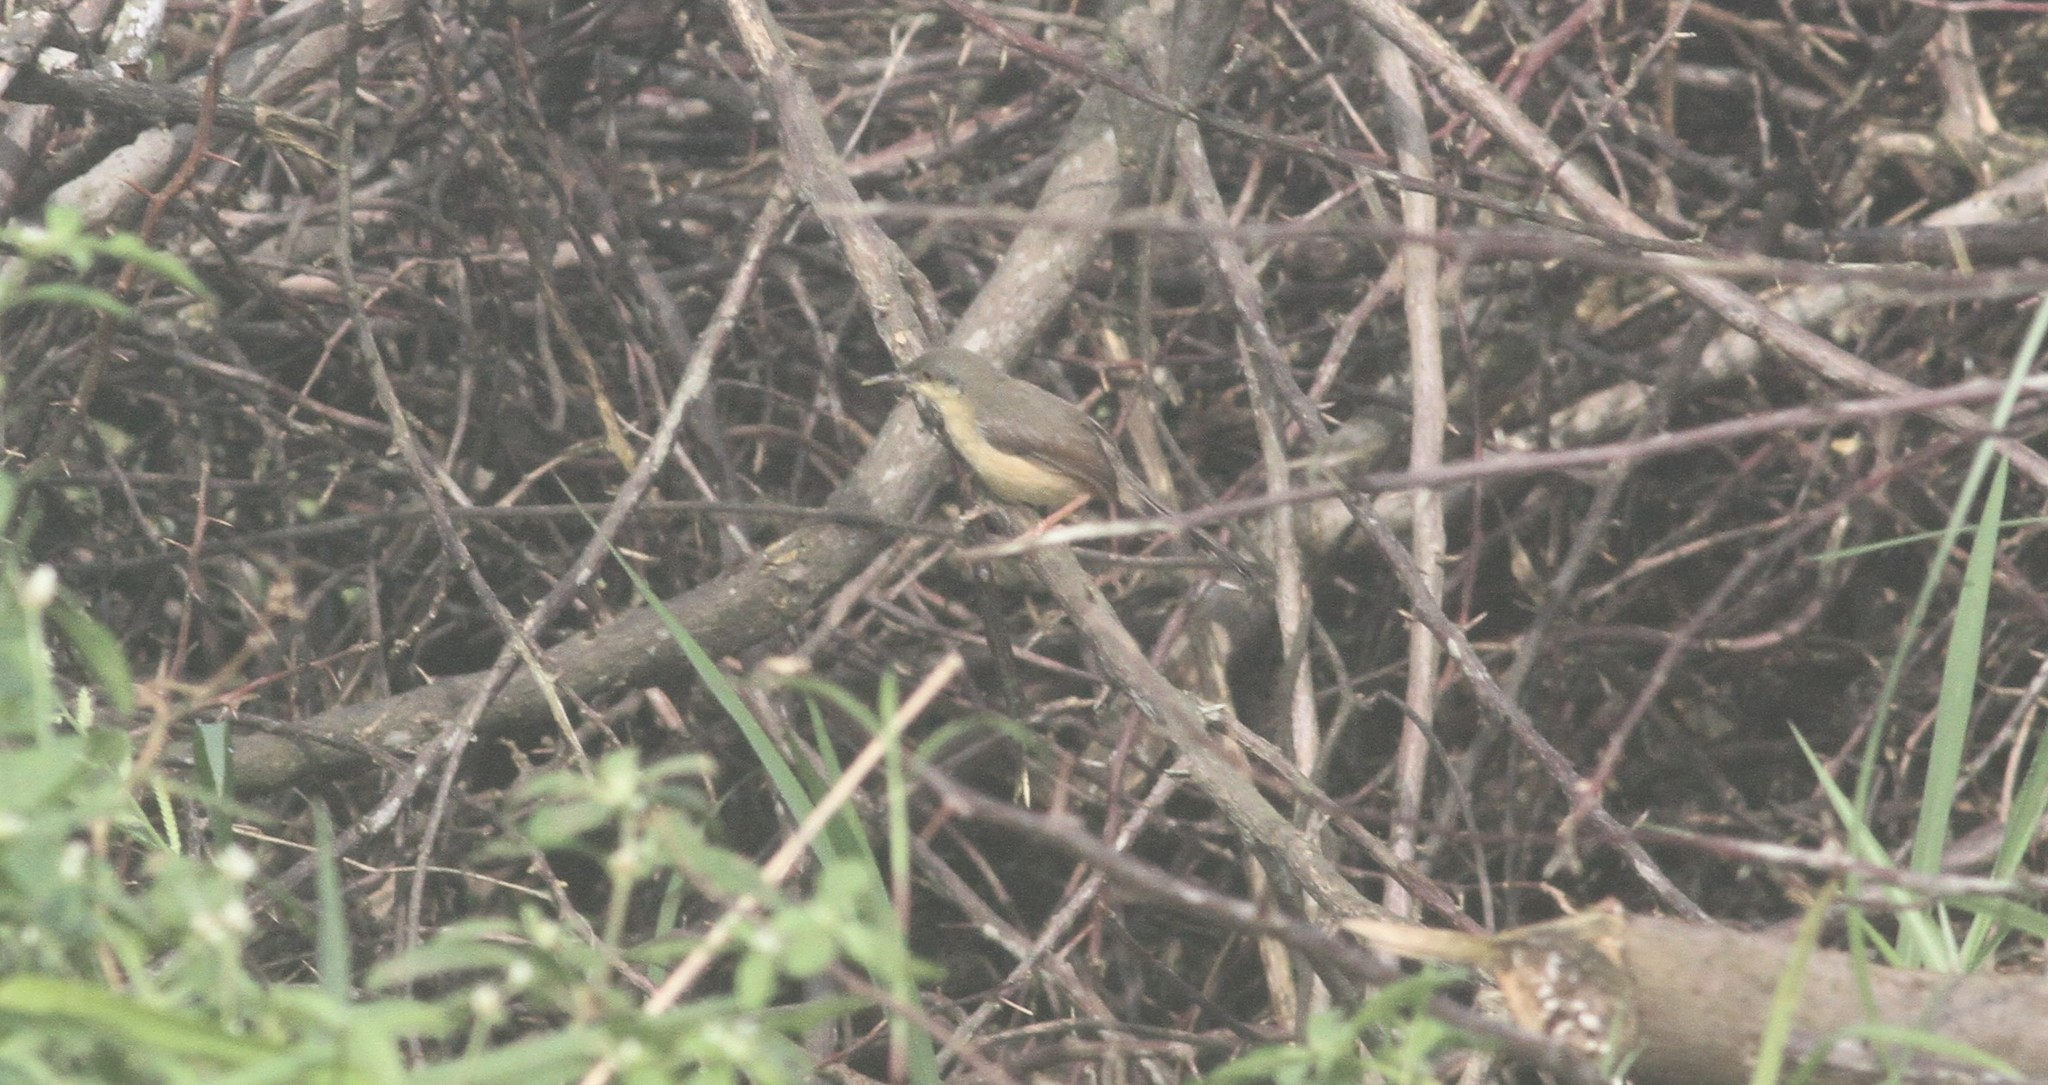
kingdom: Animalia
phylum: Chordata
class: Aves
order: Passeriformes
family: Cisticolidae
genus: Prinia
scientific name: Prinia socialis
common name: Ashy prinia
